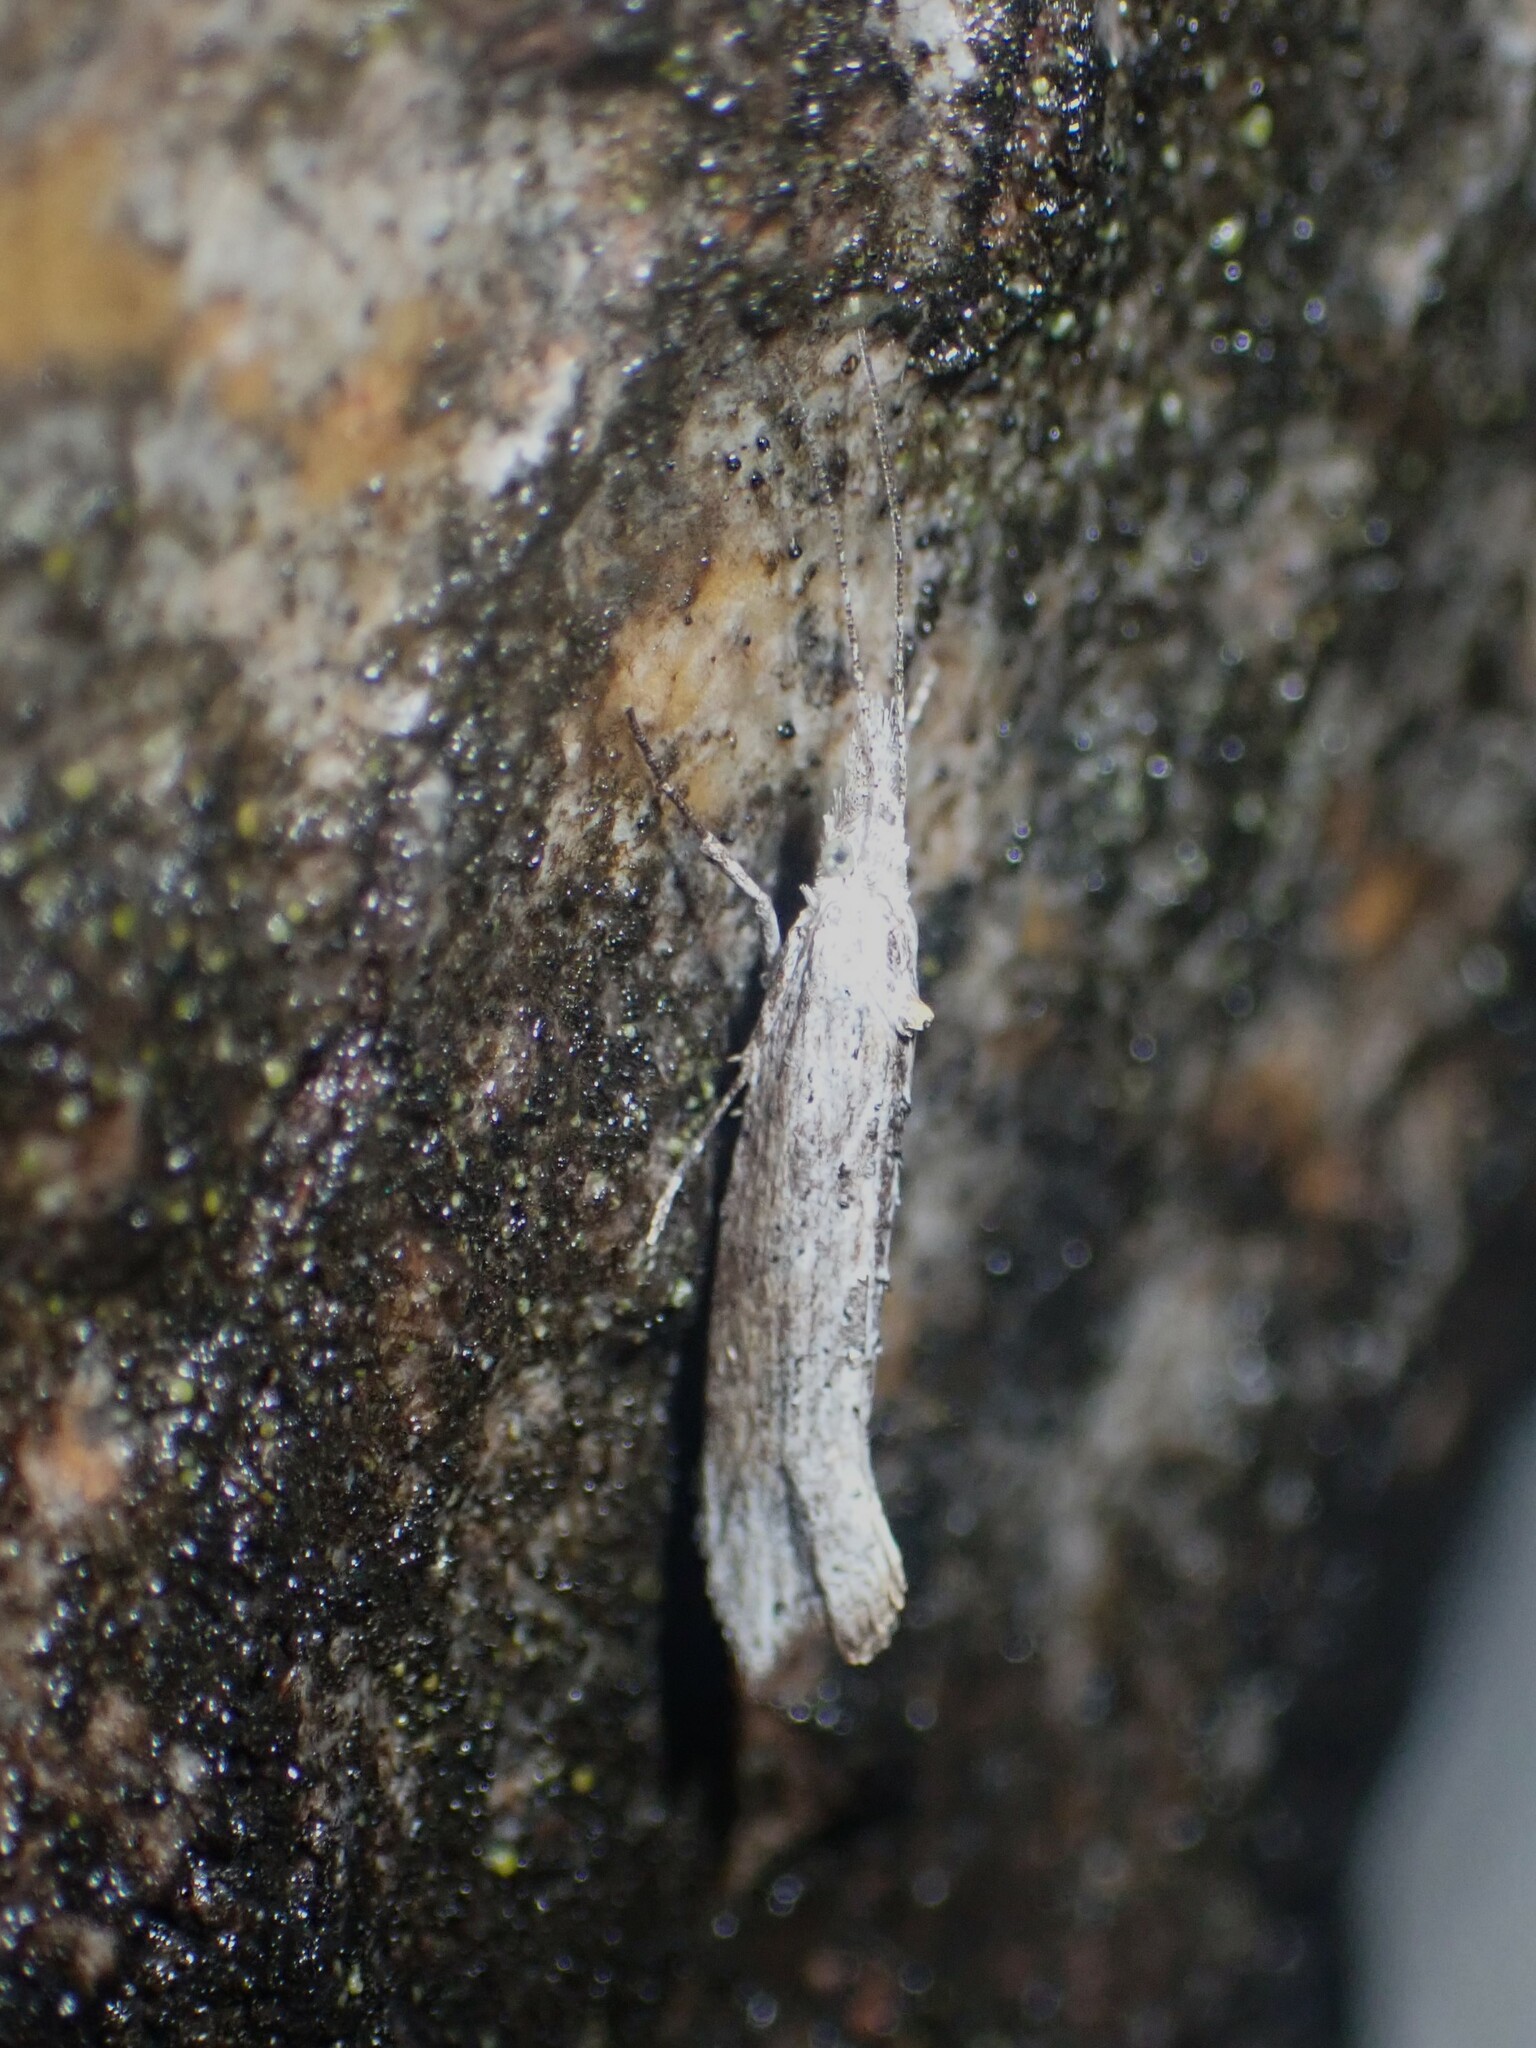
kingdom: Animalia
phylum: Arthropoda
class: Insecta
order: Lepidoptera
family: Ypsolophidae
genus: Ypsolopha
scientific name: Ypsolopha falciferella
